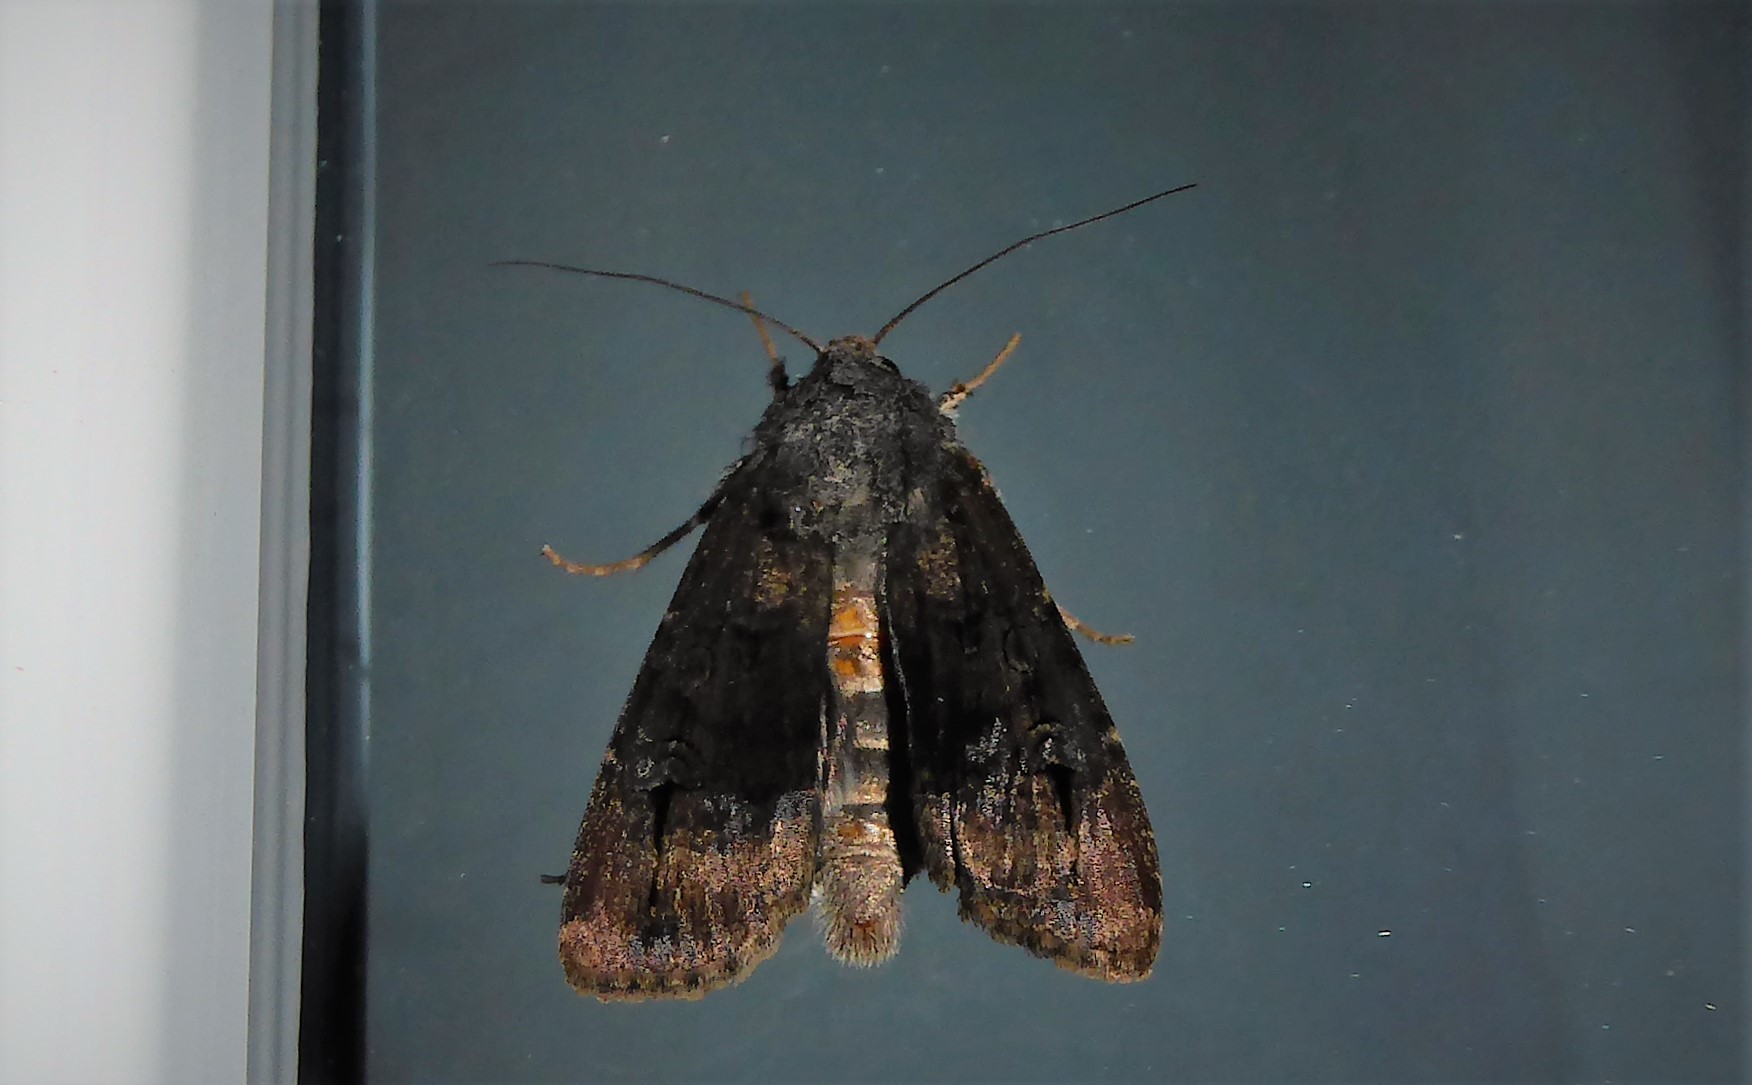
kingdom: Animalia
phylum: Arthropoda
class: Insecta
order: Lepidoptera
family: Noctuidae
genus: Agrotis
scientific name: Agrotis ipsilon
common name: Dark sword-grass
